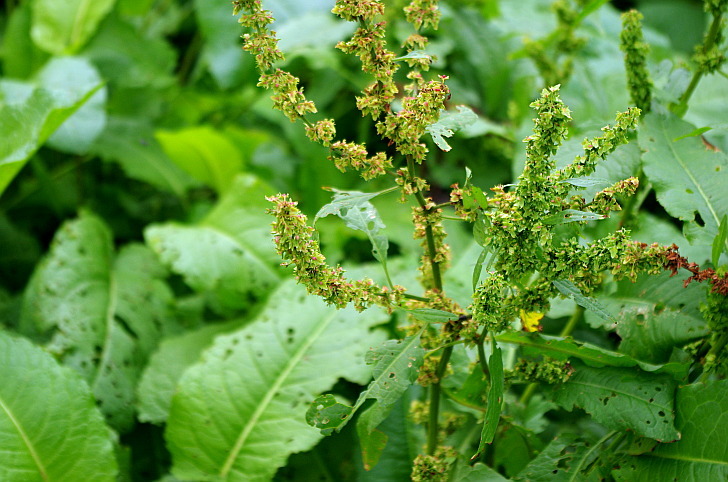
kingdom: Plantae
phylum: Tracheophyta
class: Magnoliopsida
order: Caryophyllales
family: Polygonaceae
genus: Rumex
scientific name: Rumex obtusifolius
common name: Bitter dock
